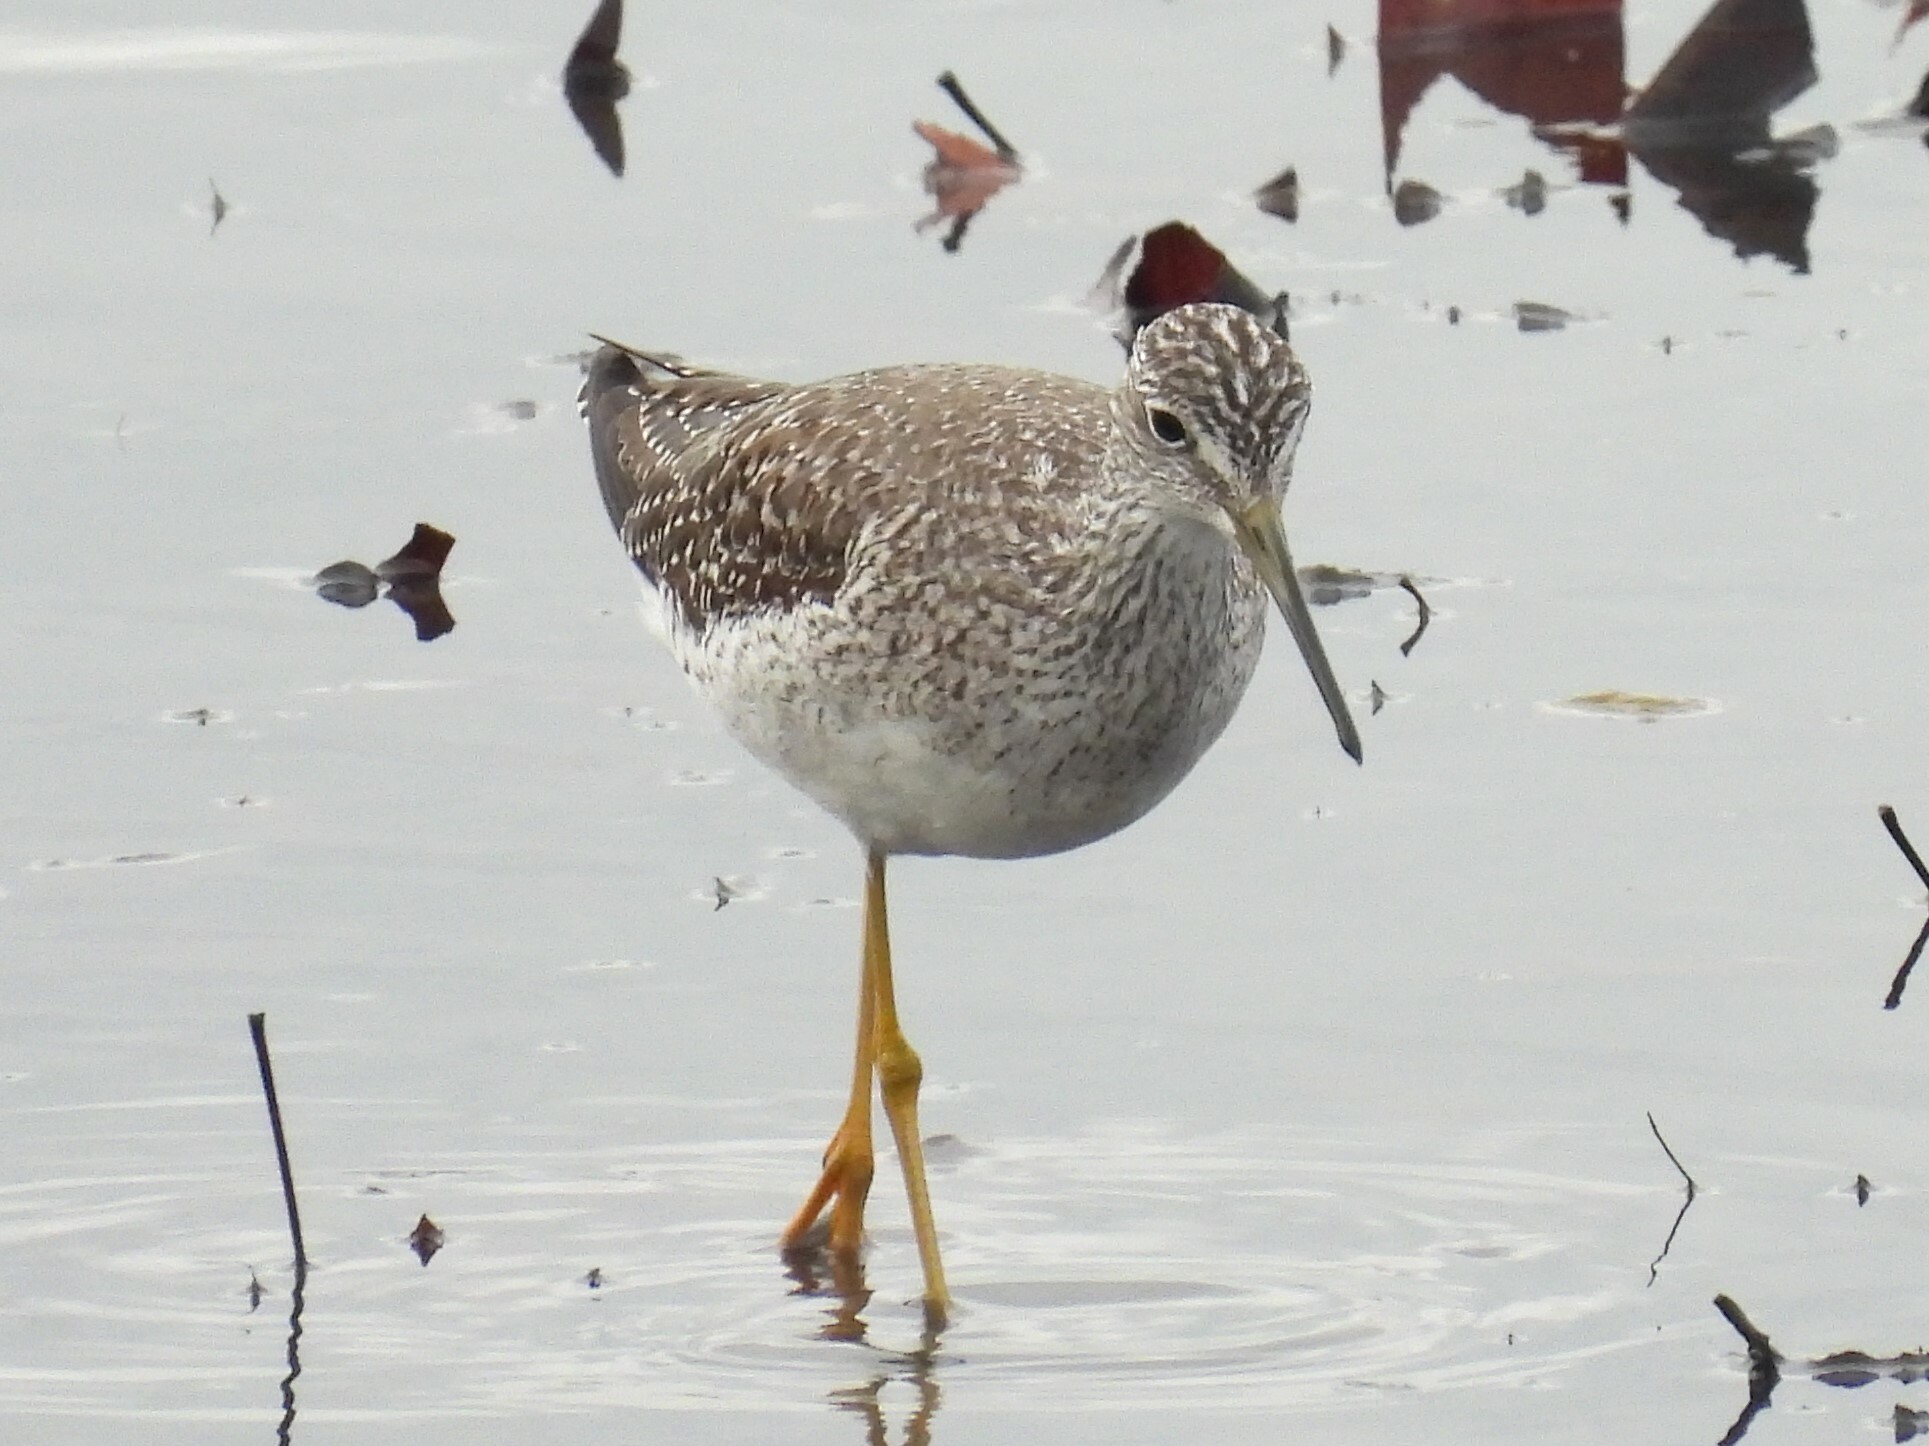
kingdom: Animalia
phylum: Chordata
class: Aves
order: Charadriiformes
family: Scolopacidae
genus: Tringa
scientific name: Tringa melanoleuca
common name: Greater yellowlegs
